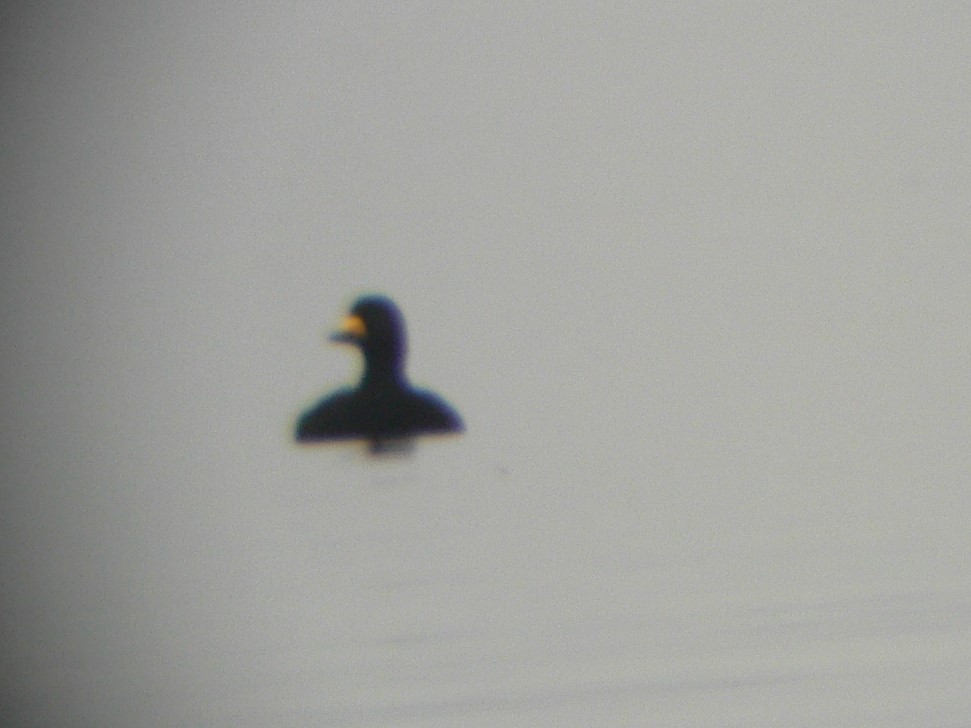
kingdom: Animalia
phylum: Chordata
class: Aves
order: Anseriformes
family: Anatidae
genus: Melanitta
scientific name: Melanitta americana
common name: Black scoter
